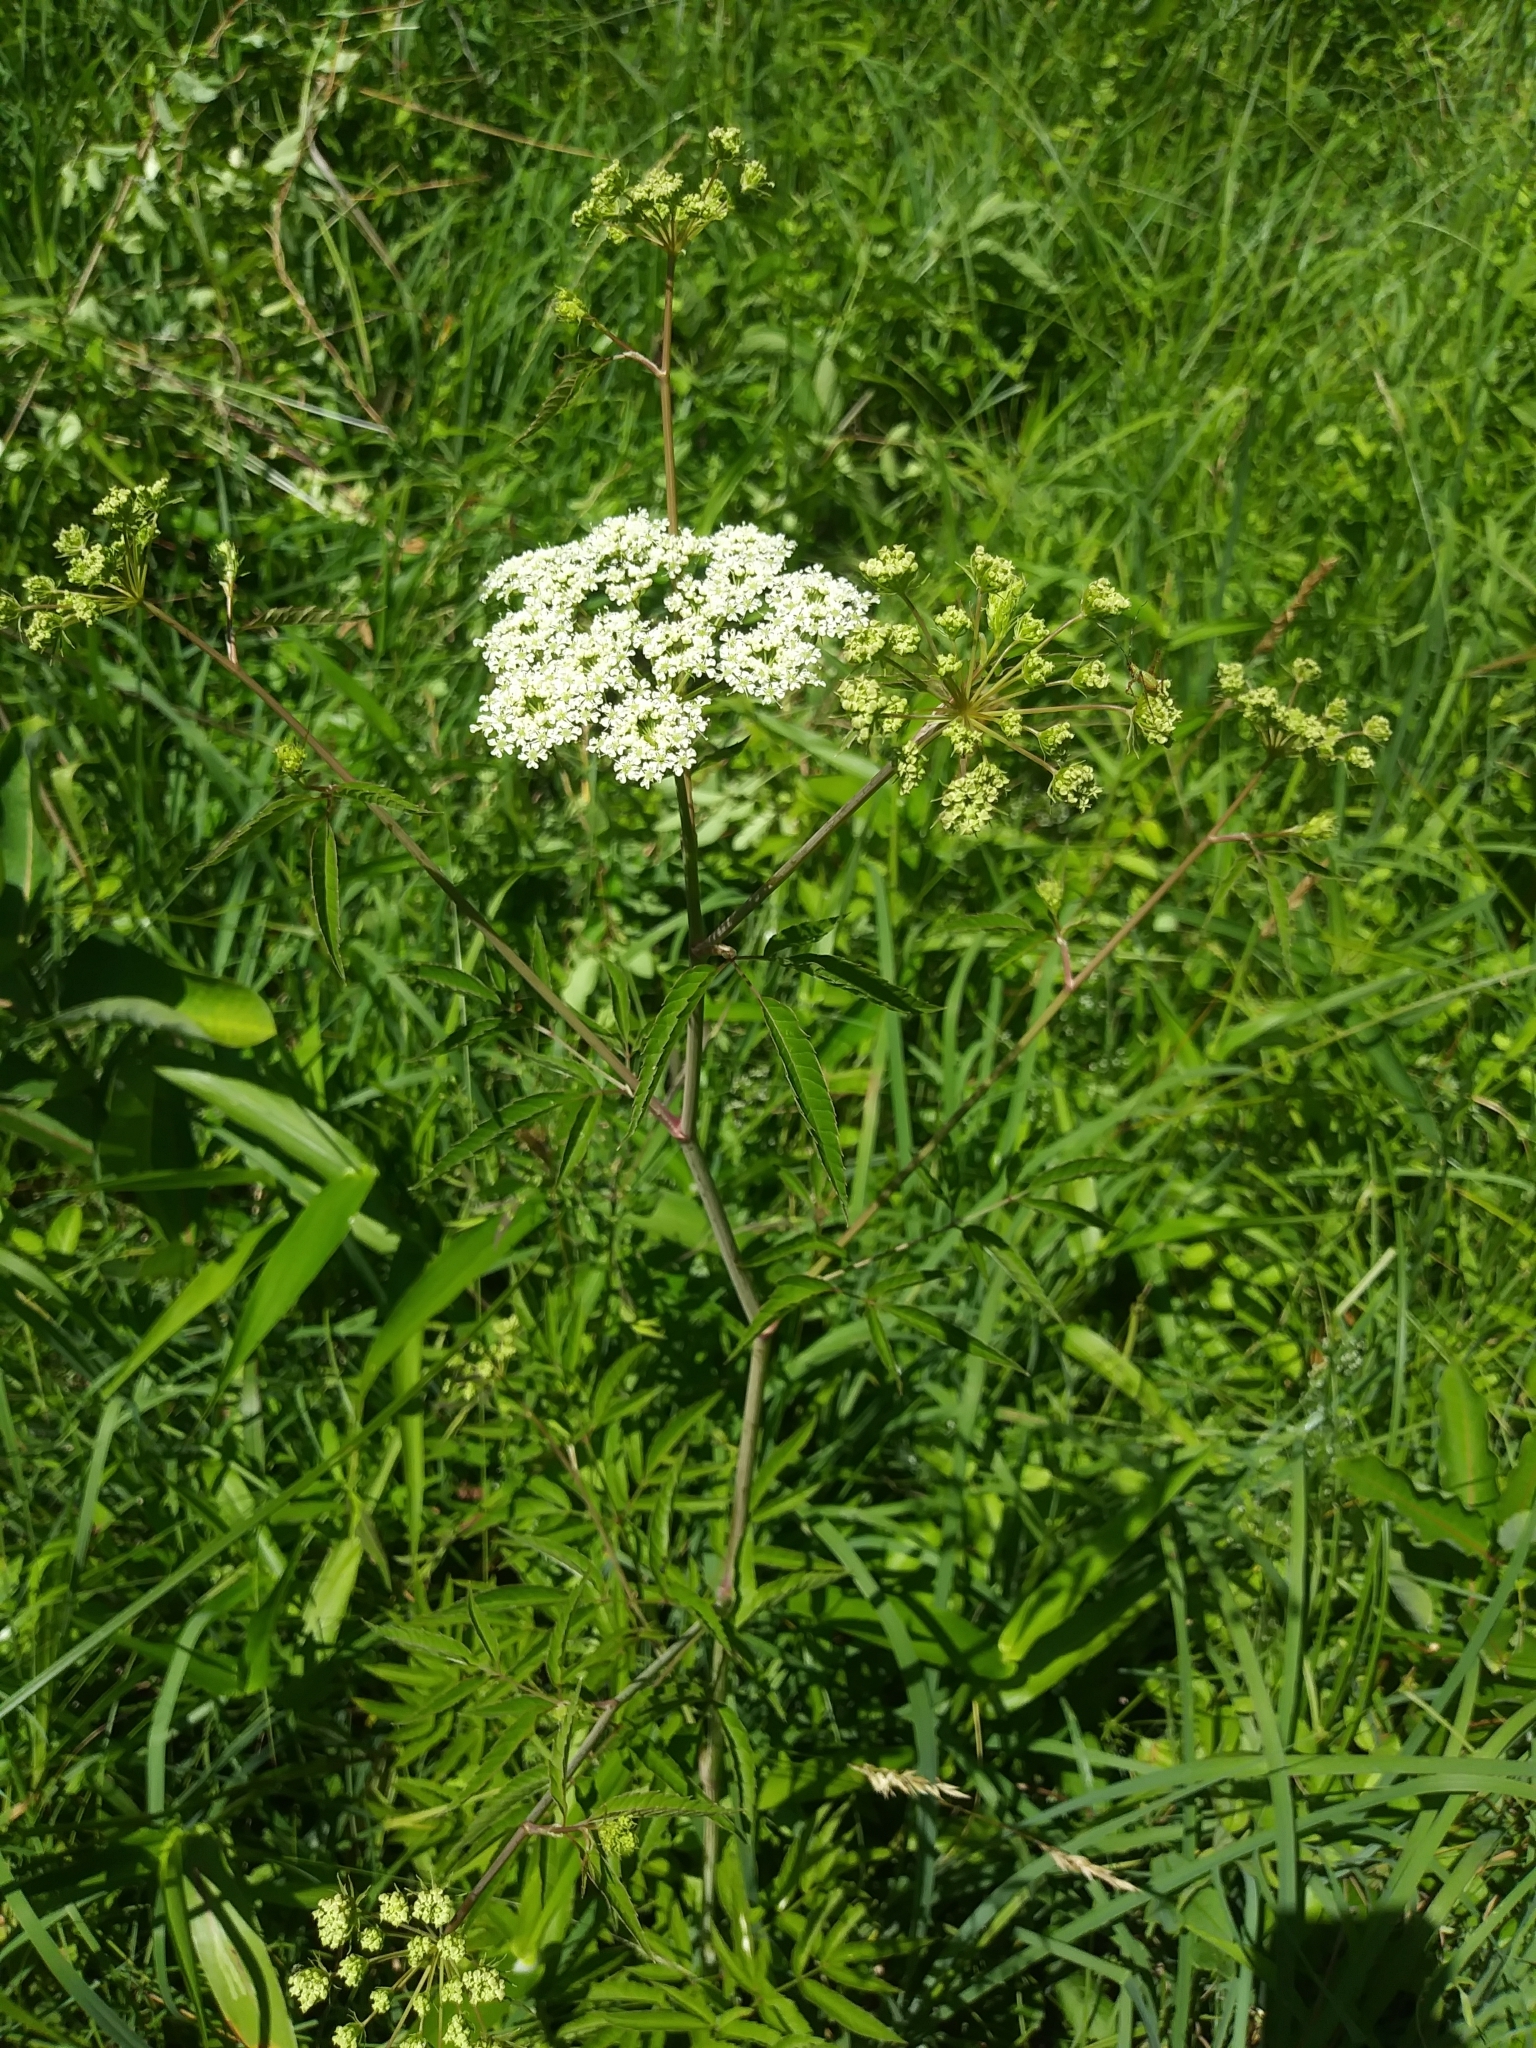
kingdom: Plantae
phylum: Tracheophyta
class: Magnoliopsida
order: Apiales
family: Apiaceae
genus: Cicuta
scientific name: Cicuta maculata
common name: Spotted cowbane
